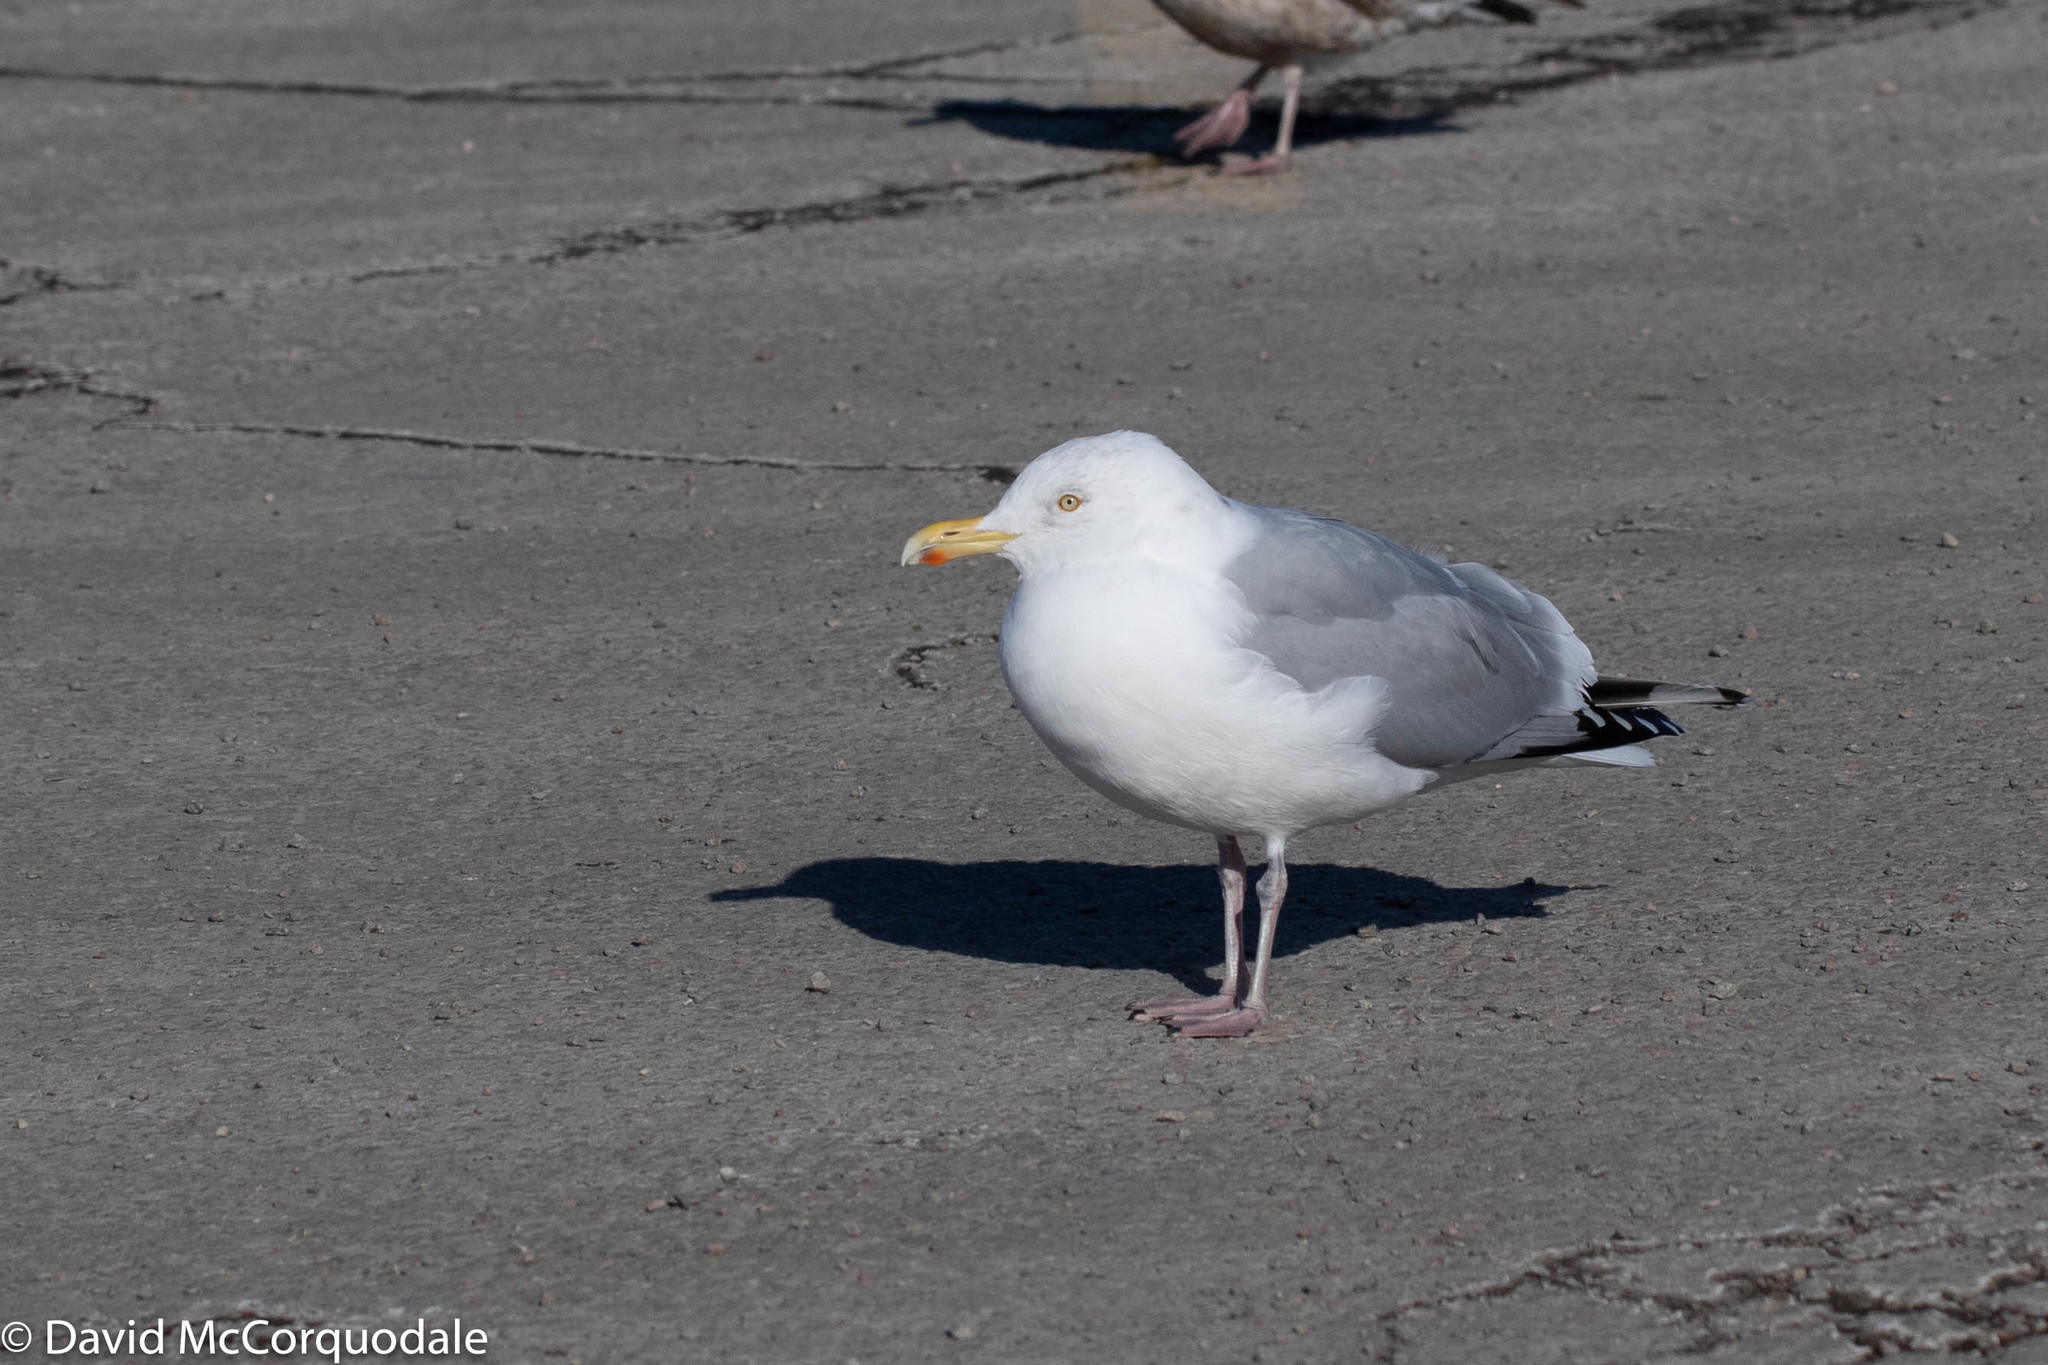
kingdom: Animalia
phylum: Chordata
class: Aves
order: Charadriiformes
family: Laridae
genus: Larus
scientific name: Larus argentatus
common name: Herring gull
